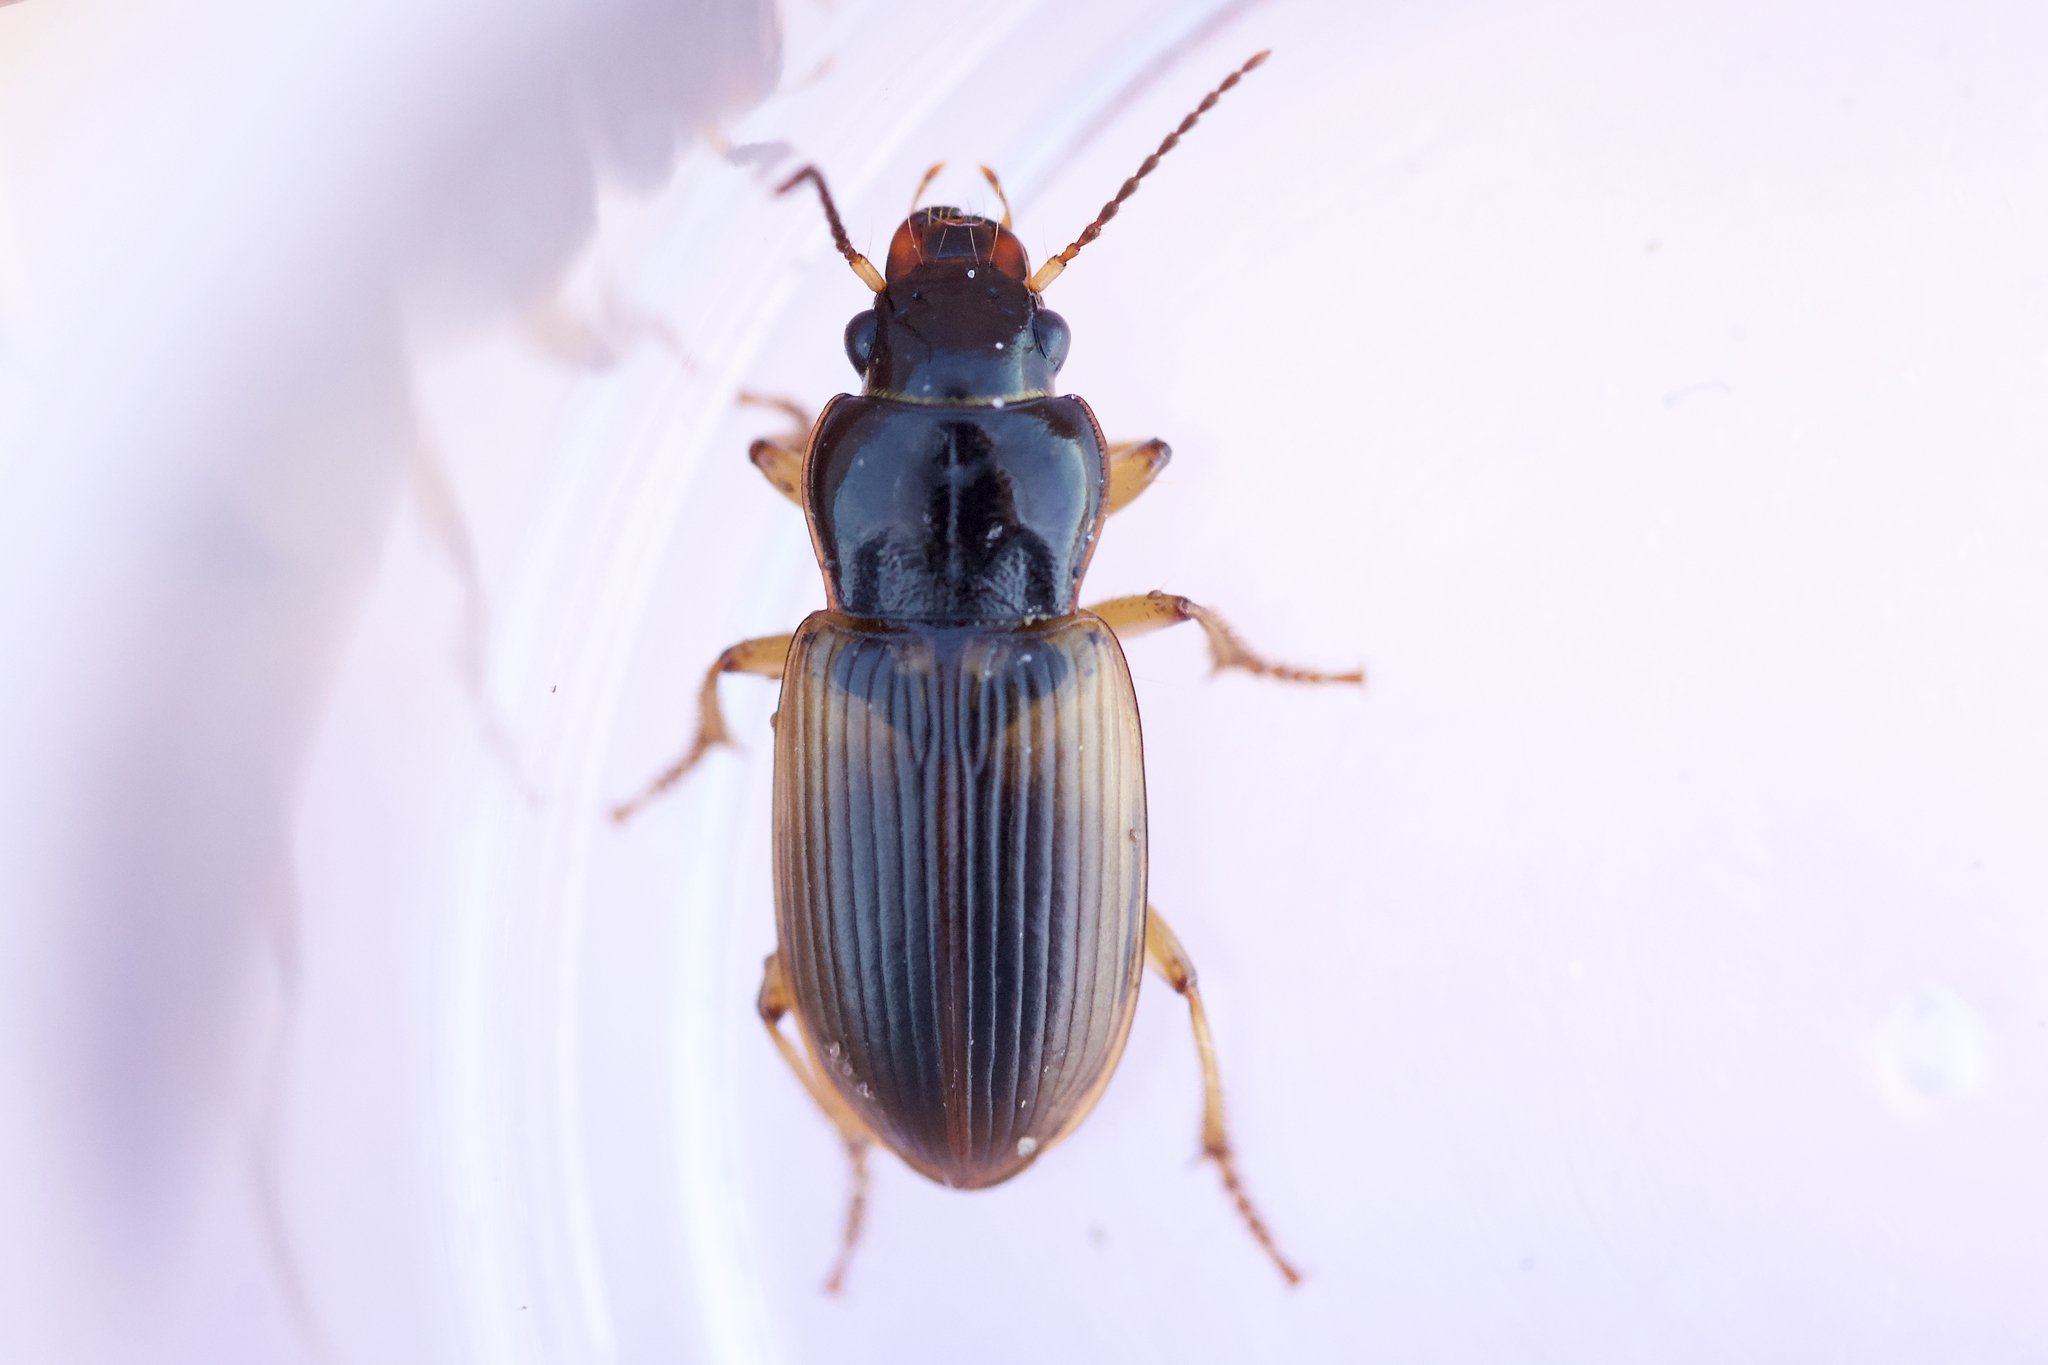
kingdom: Animalia
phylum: Arthropoda
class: Insecta
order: Coleoptera
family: Carabidae
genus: Anisodactylus
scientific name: Anisodactylus sanctaecrucis
